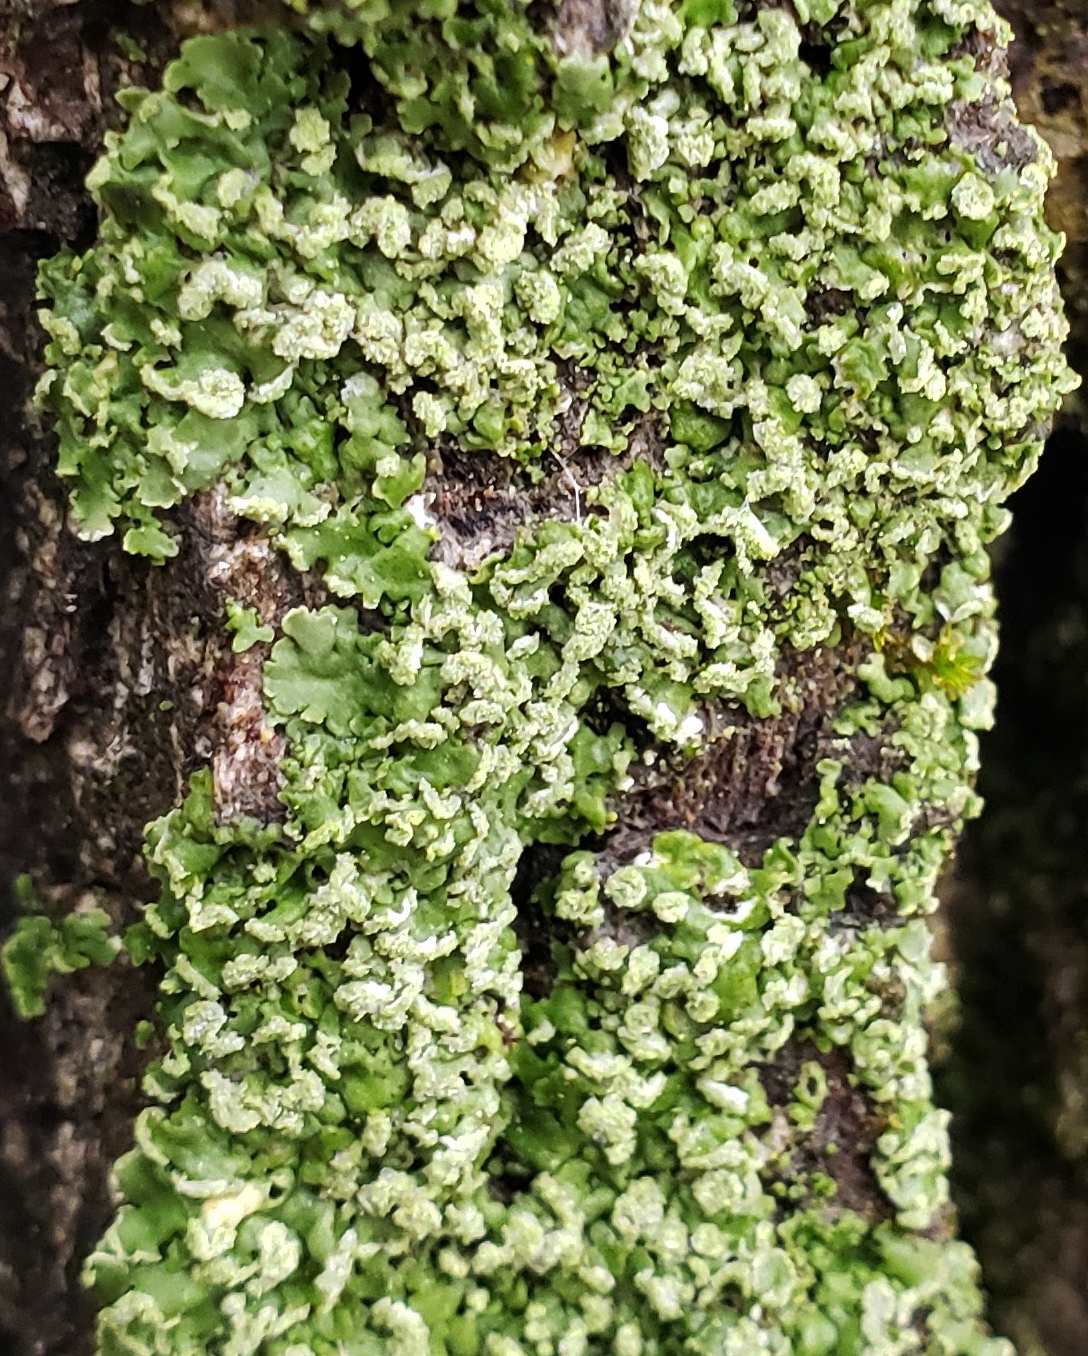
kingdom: Fungi
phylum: Ascomycota
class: Lecanoromycetes
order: Caliciales
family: Physciaceae
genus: Physciella
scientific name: Physciella chloantha
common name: Cryptic rosette lichen
